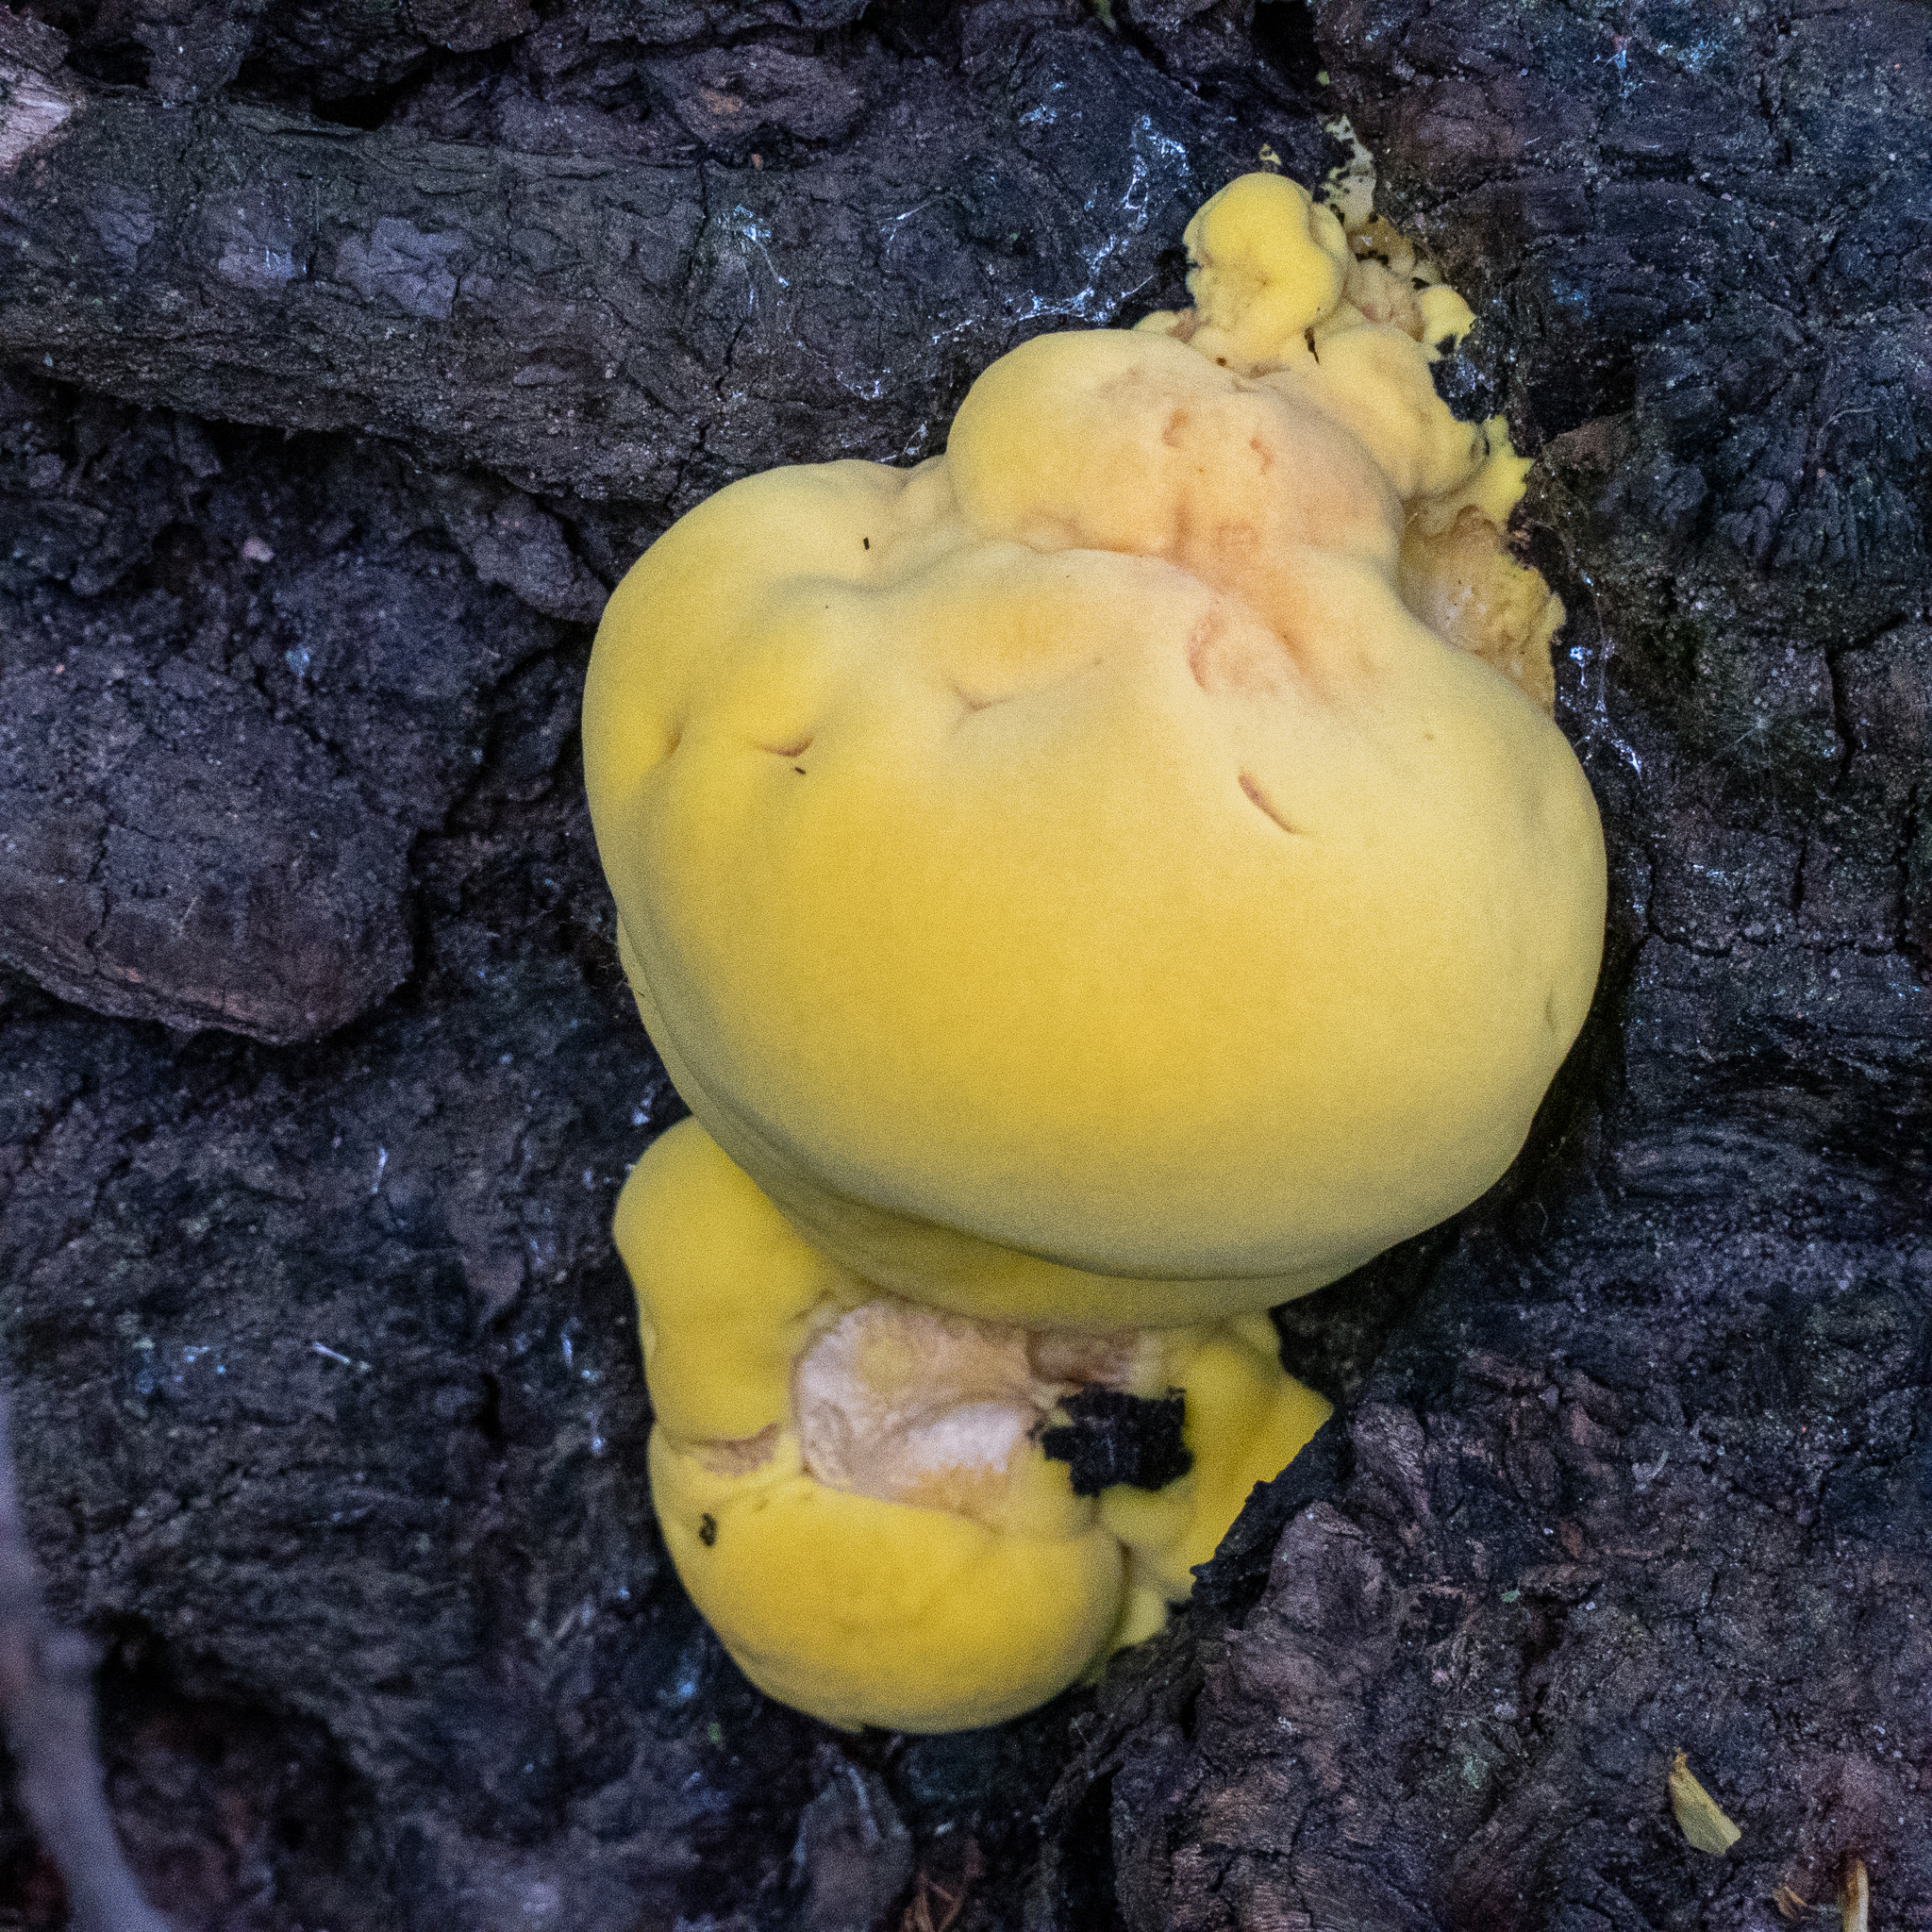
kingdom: Fungi
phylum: Basidiomycota
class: Agaricomycetes
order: Polyporales
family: Laetiporaceae
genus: Laetiporus
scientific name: Laetiporus sulphureus
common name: Chicken of the woods
